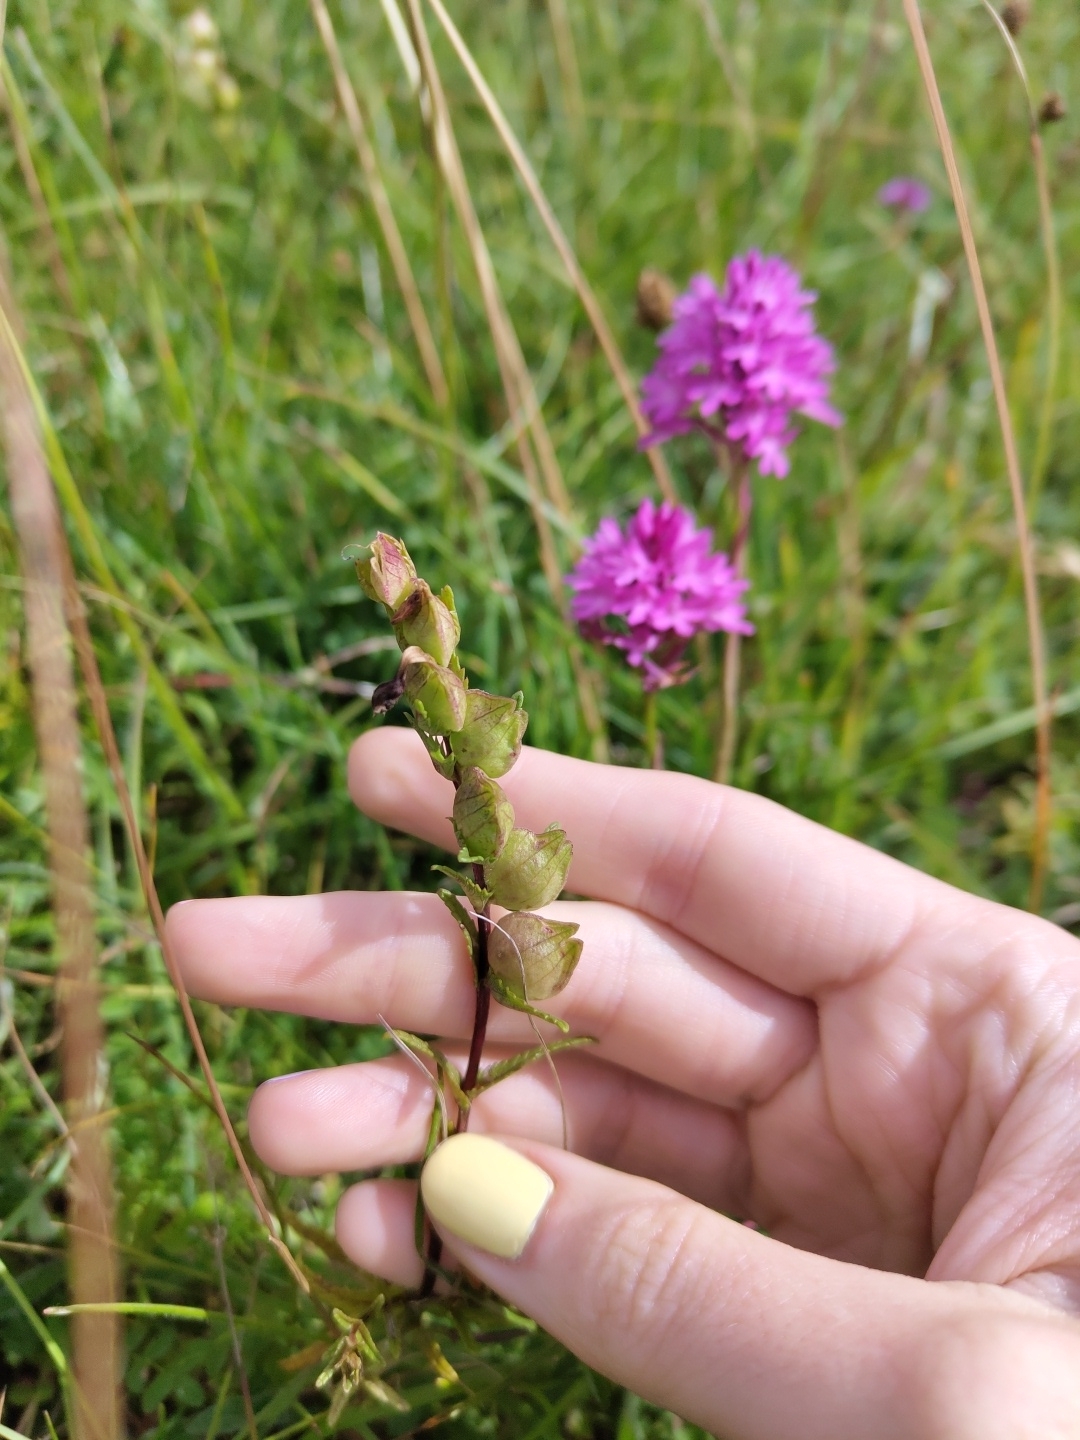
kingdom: Plantae
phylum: Tracheophyta
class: Magnoliopsida
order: Lamiales
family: Orobanchaceae
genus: Rhinanthus
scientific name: Rhinanthus minor
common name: Yellow-rattle
